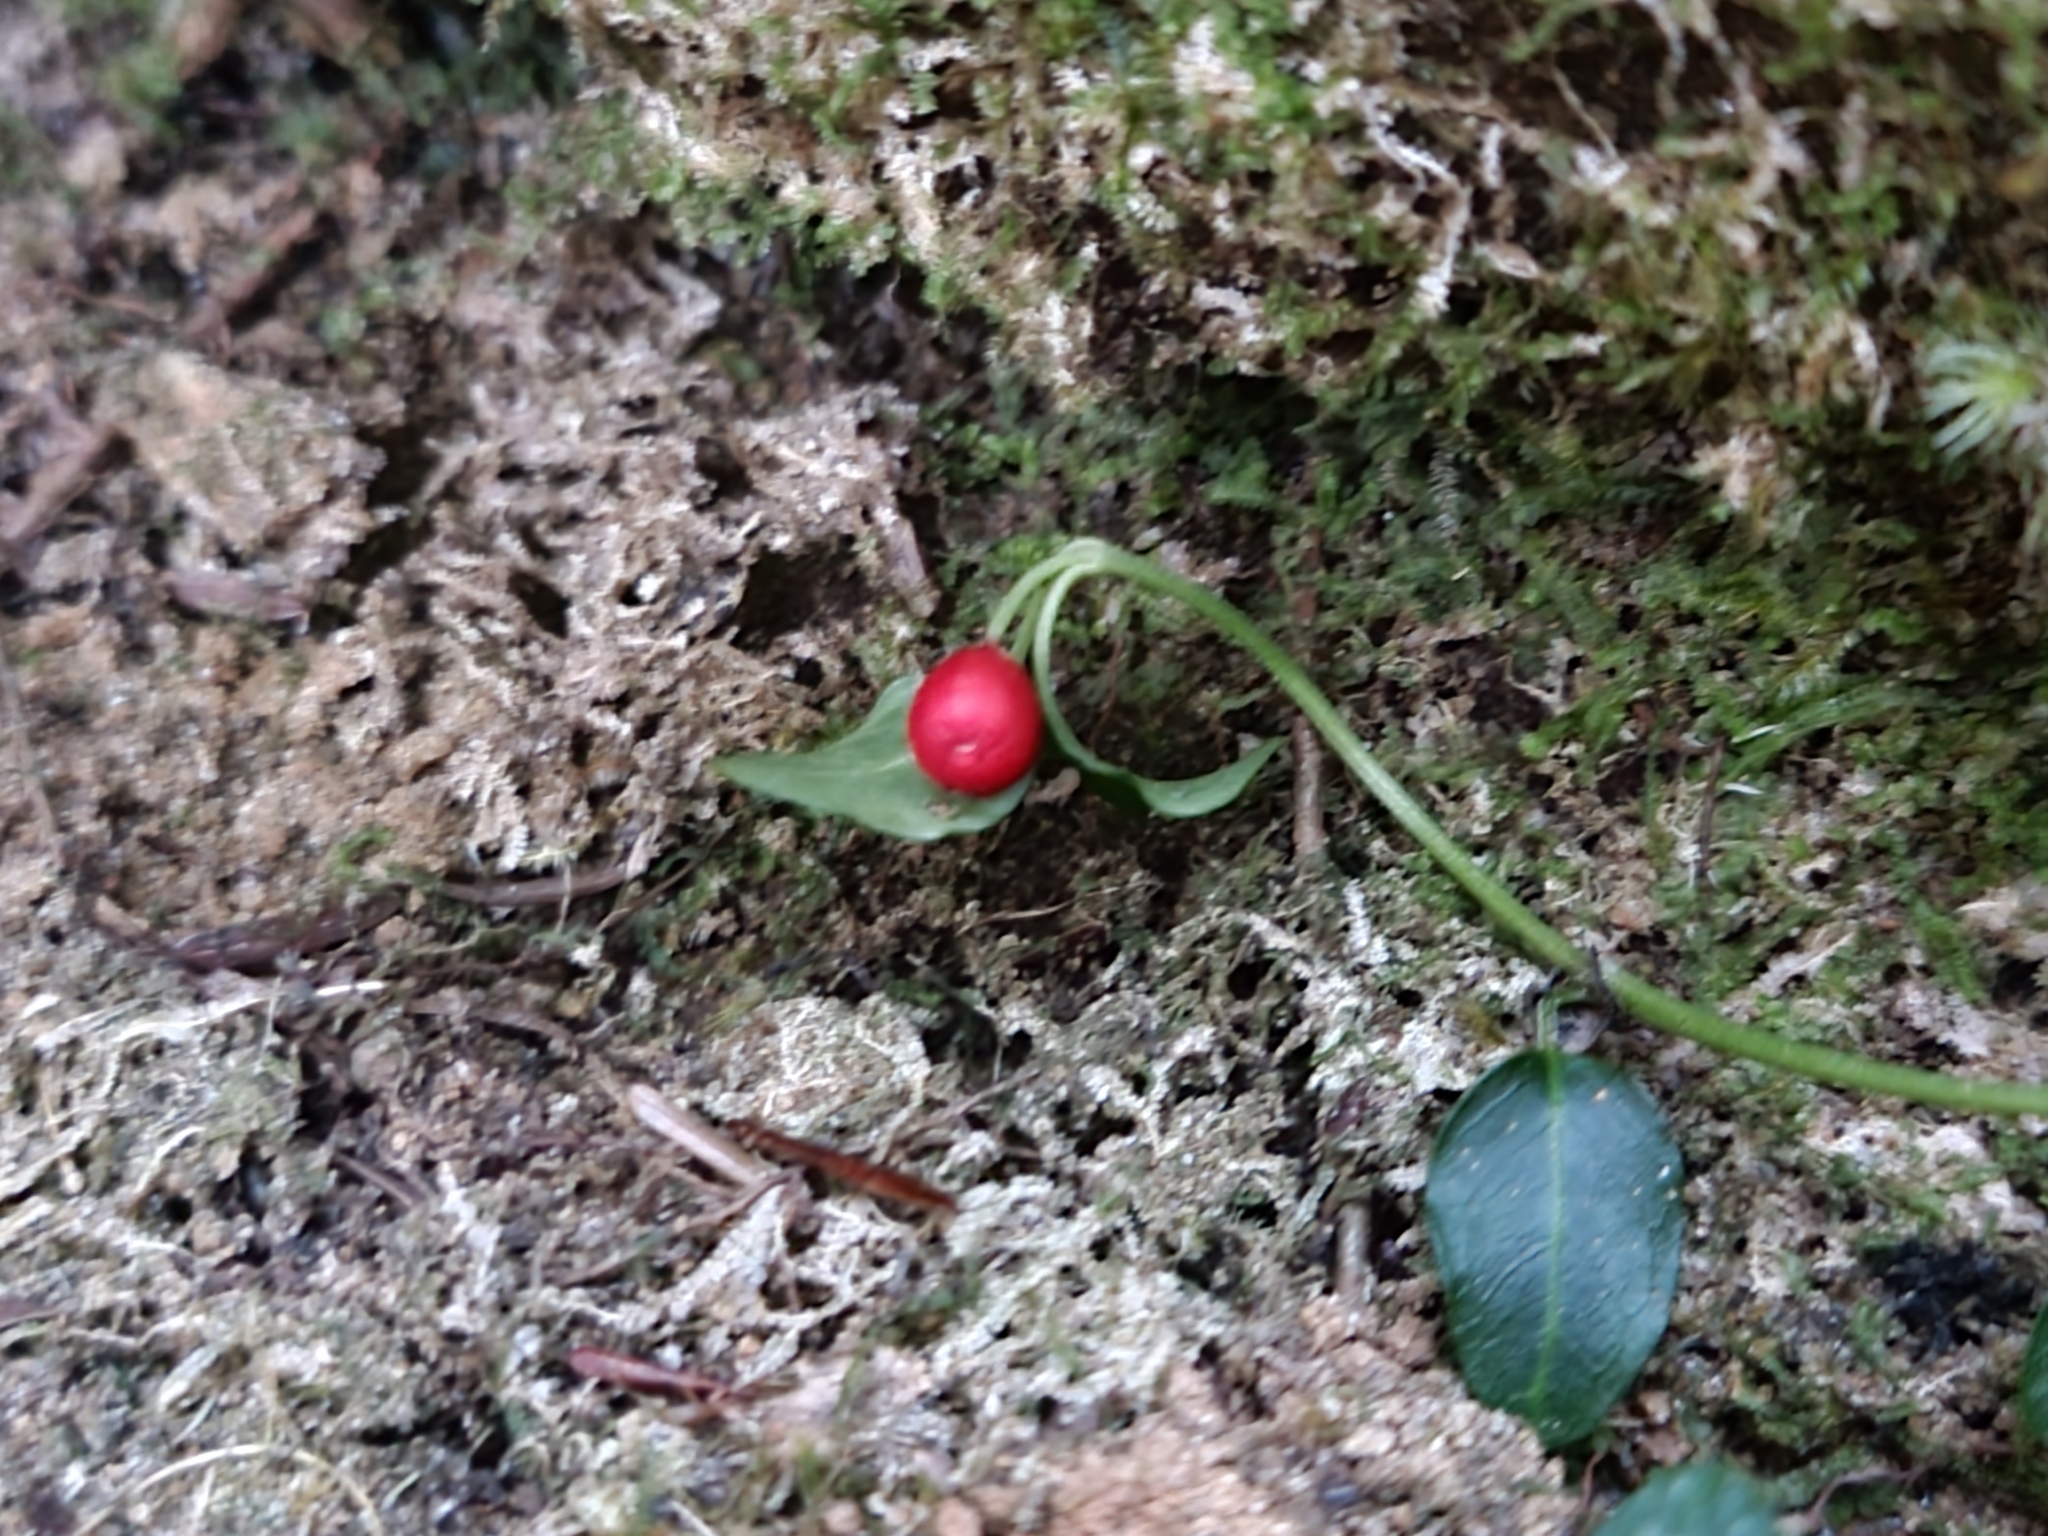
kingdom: Plantae
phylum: Tracheophyta
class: Magnoliopsida
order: Gentianales
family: Rubiaceae
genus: Mitchella
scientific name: Mitchella repens
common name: Partridge-berry
